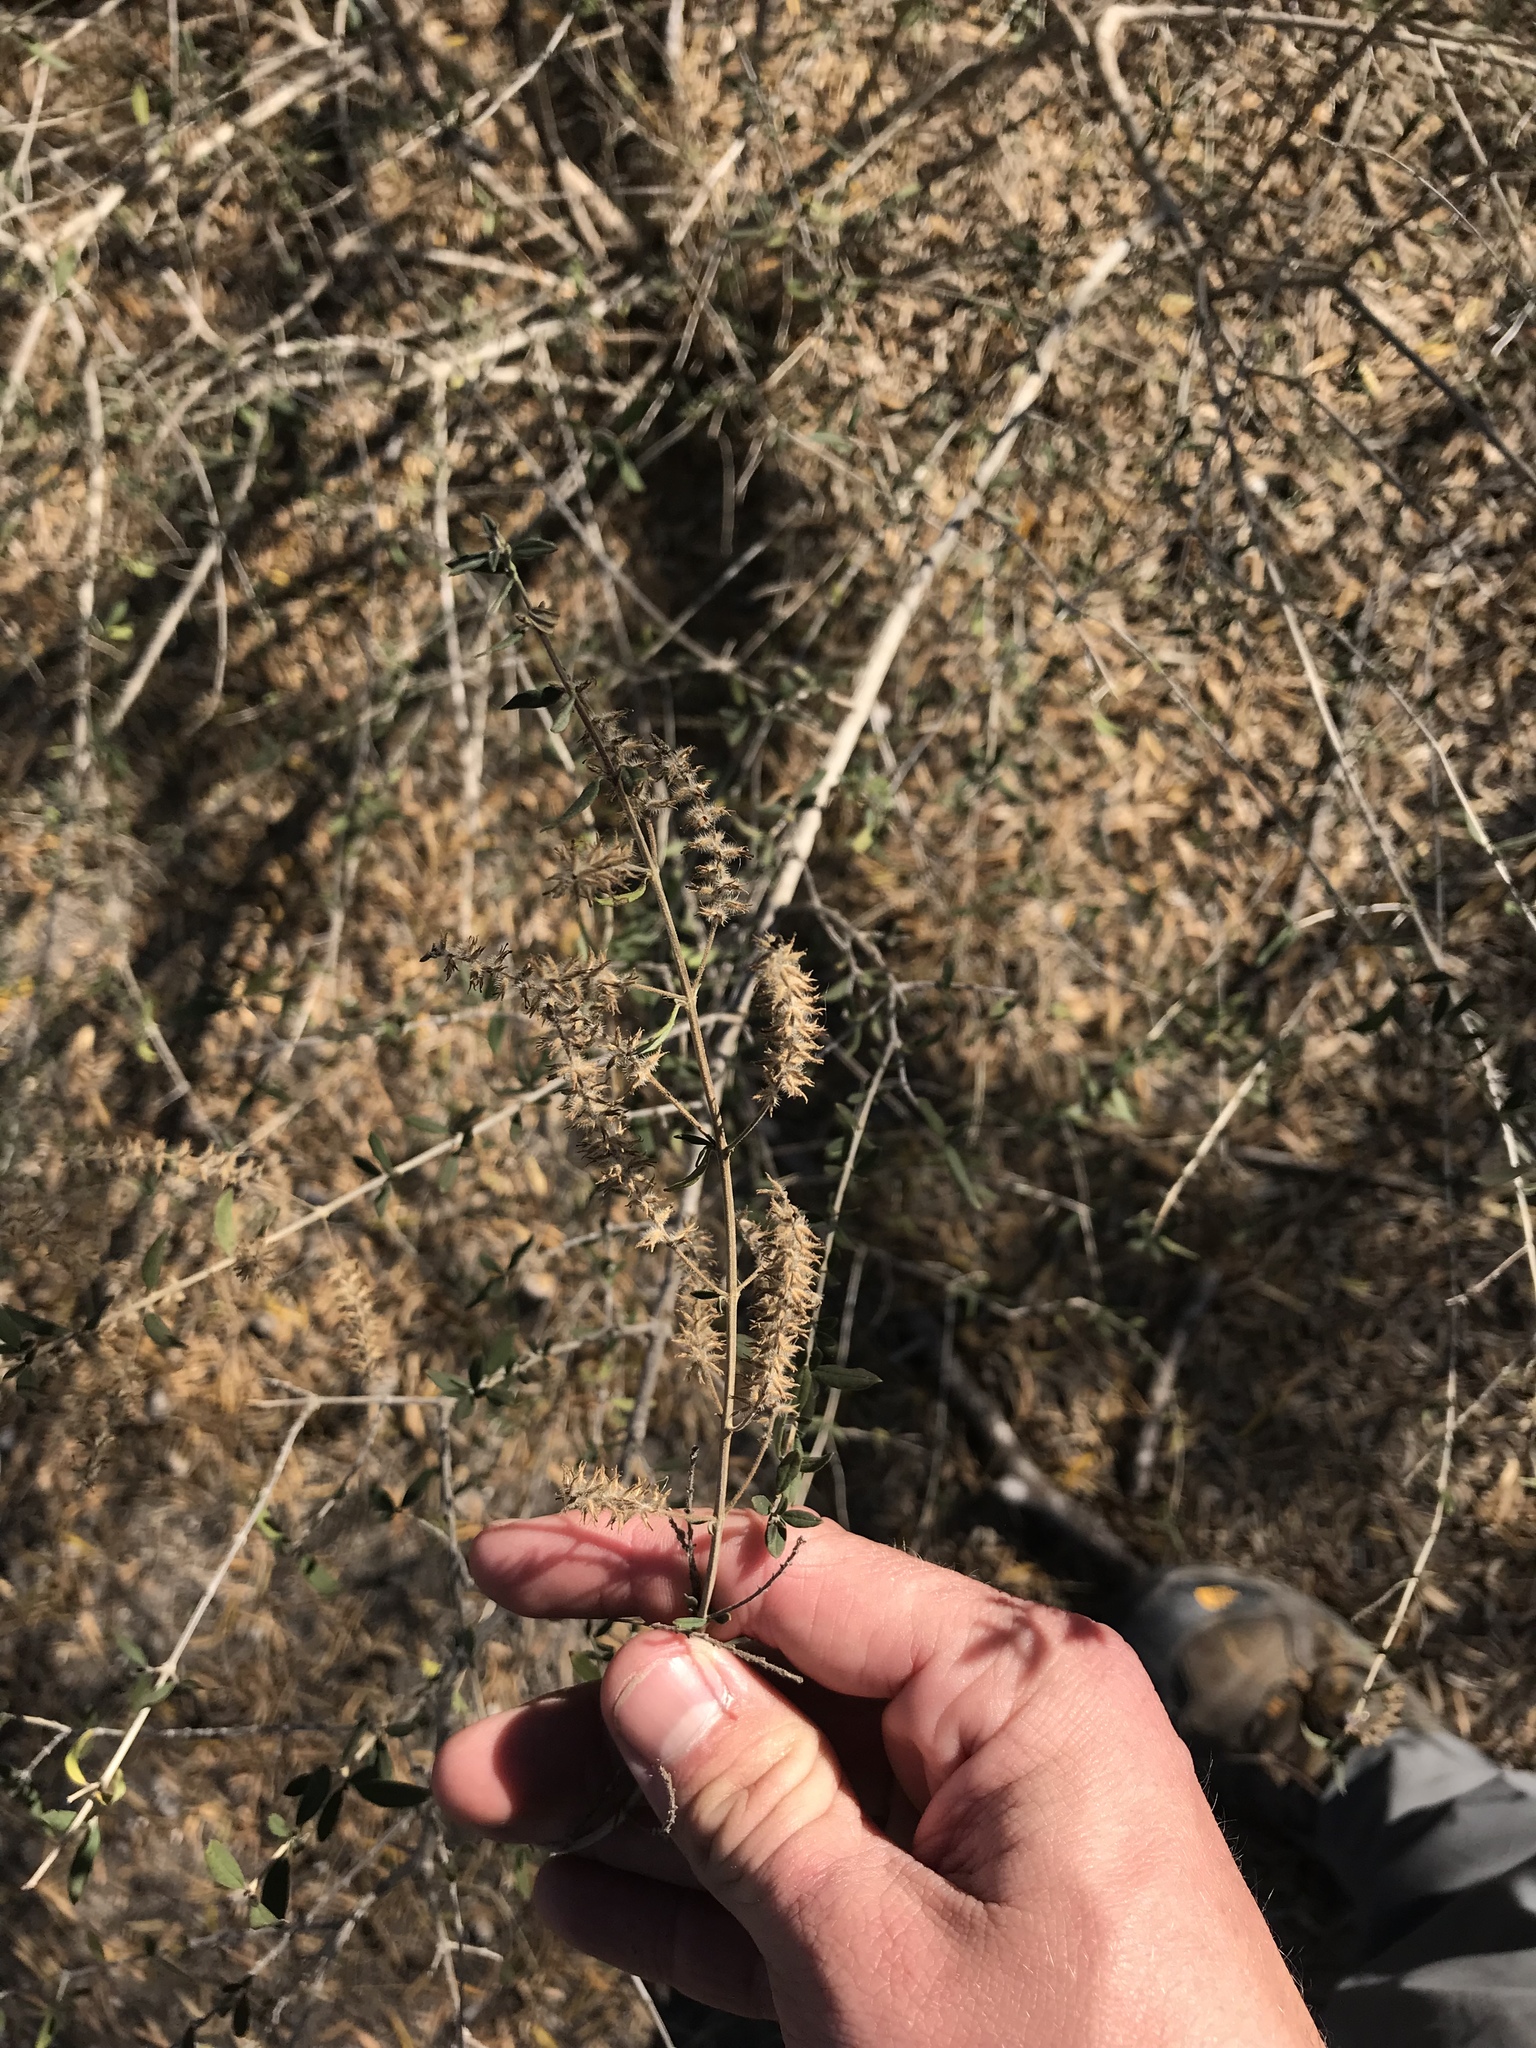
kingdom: Plantae
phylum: Tracheophyta
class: Magnoliopsida
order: Lamiales
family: Verbenaceae
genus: Aloysia
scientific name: Aloysia gratissima
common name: Common bee-brush
